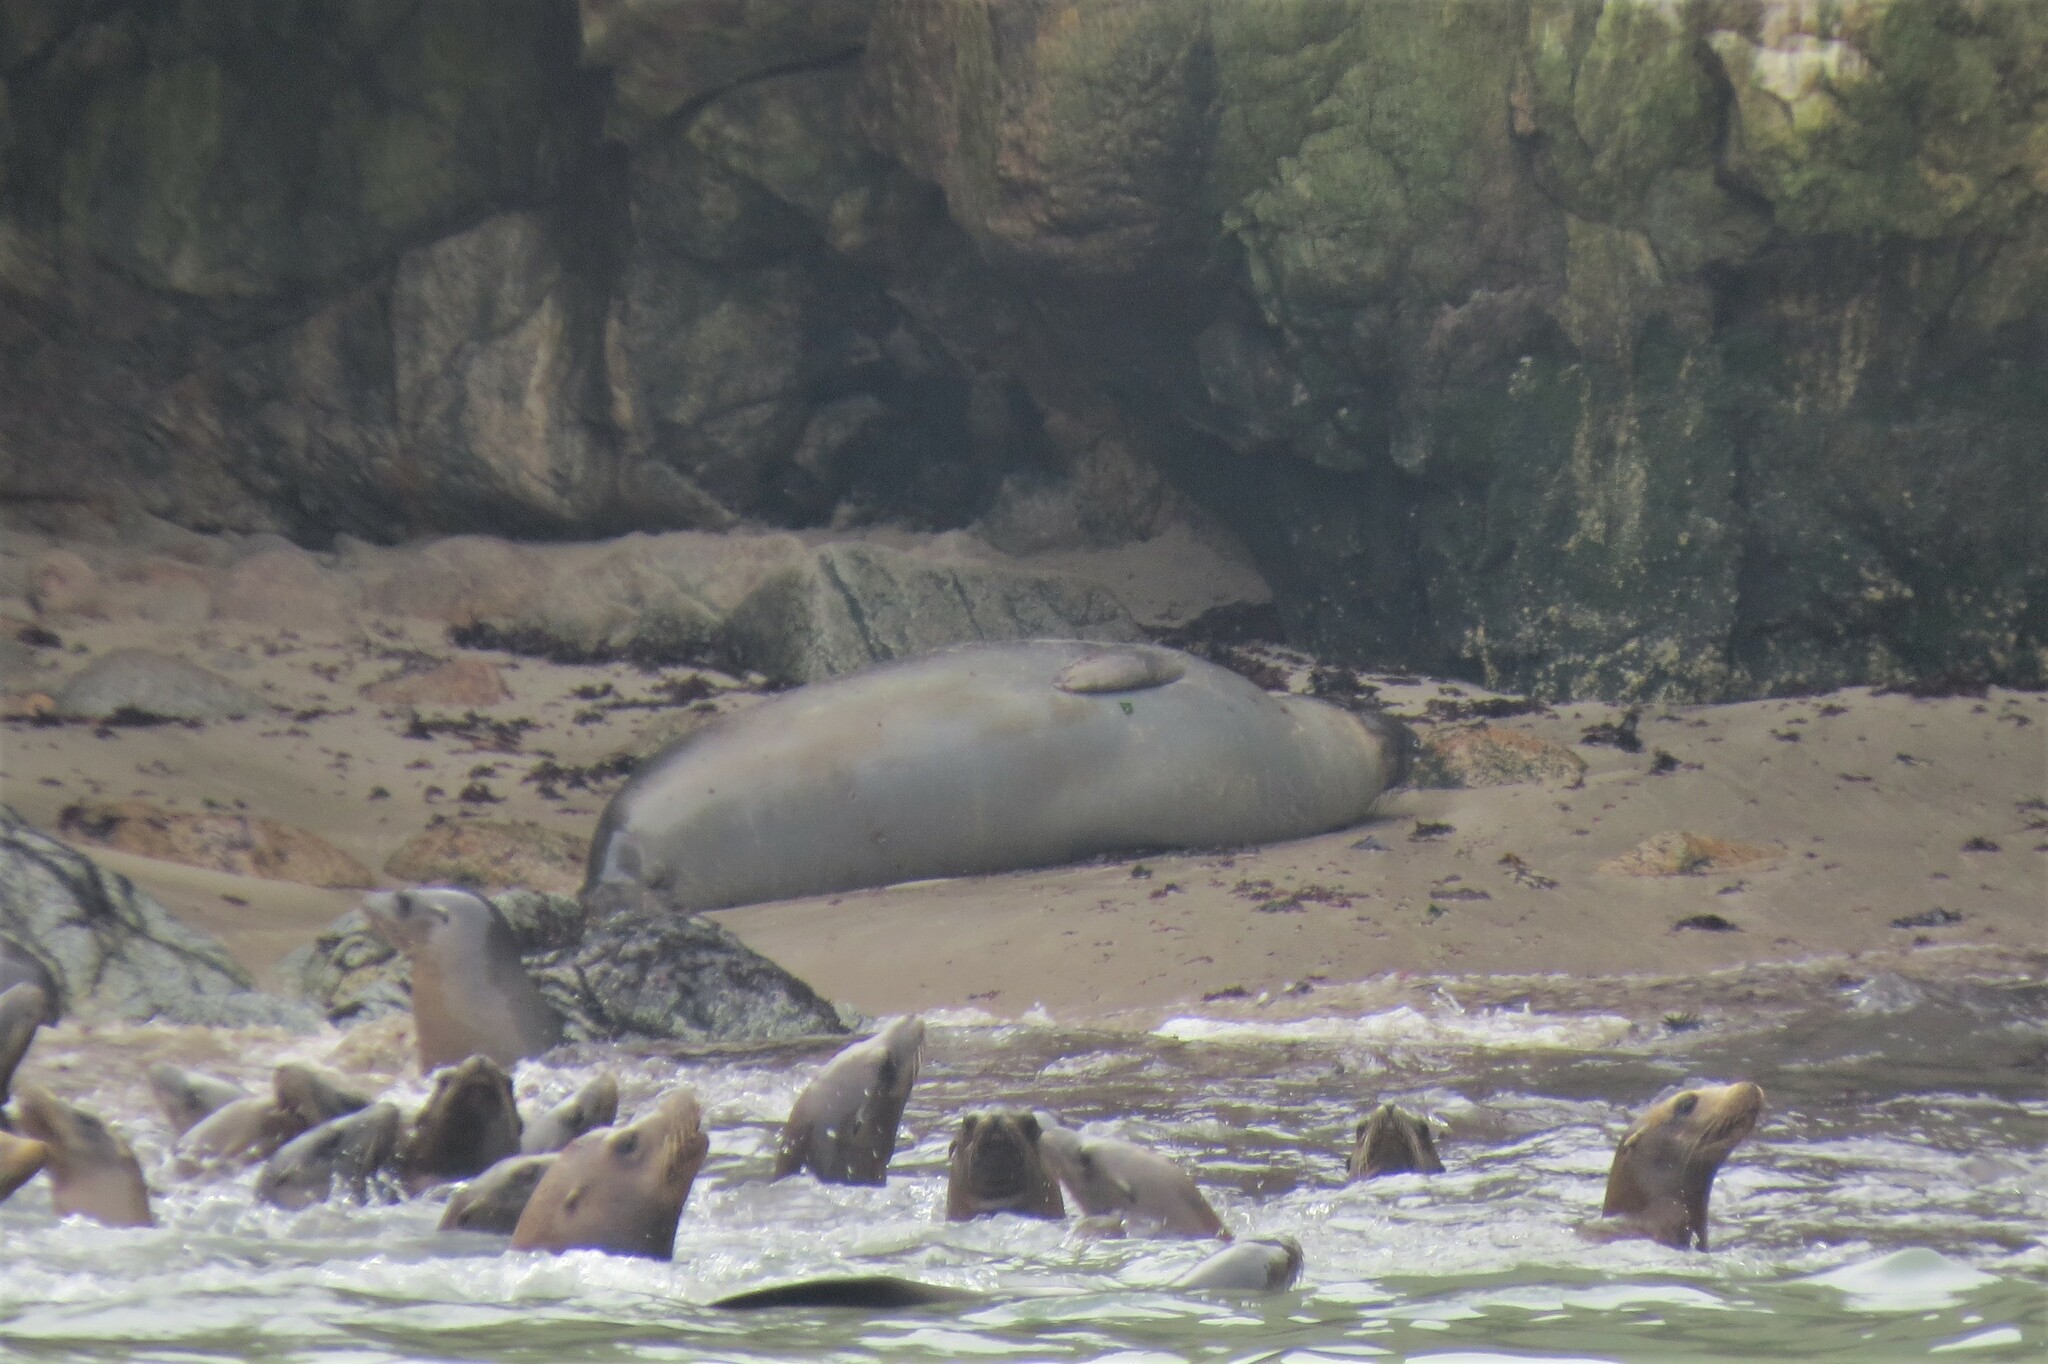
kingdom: Animalia
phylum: Chordata
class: Mammalia
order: Carnivora
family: Phocidae
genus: Mirounga
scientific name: Mirounga angustirostris
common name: Northern elephant seal
